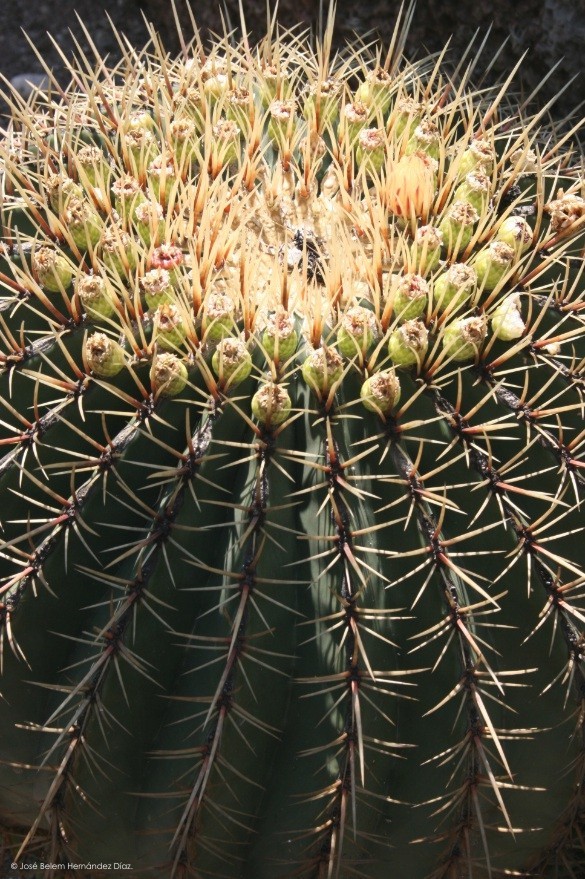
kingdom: Plantae
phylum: Tracheophyta
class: Magnoliopsida
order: Caryophyllales
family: Cactaceae
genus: Bisnaga
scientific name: Bisnaga histrix
